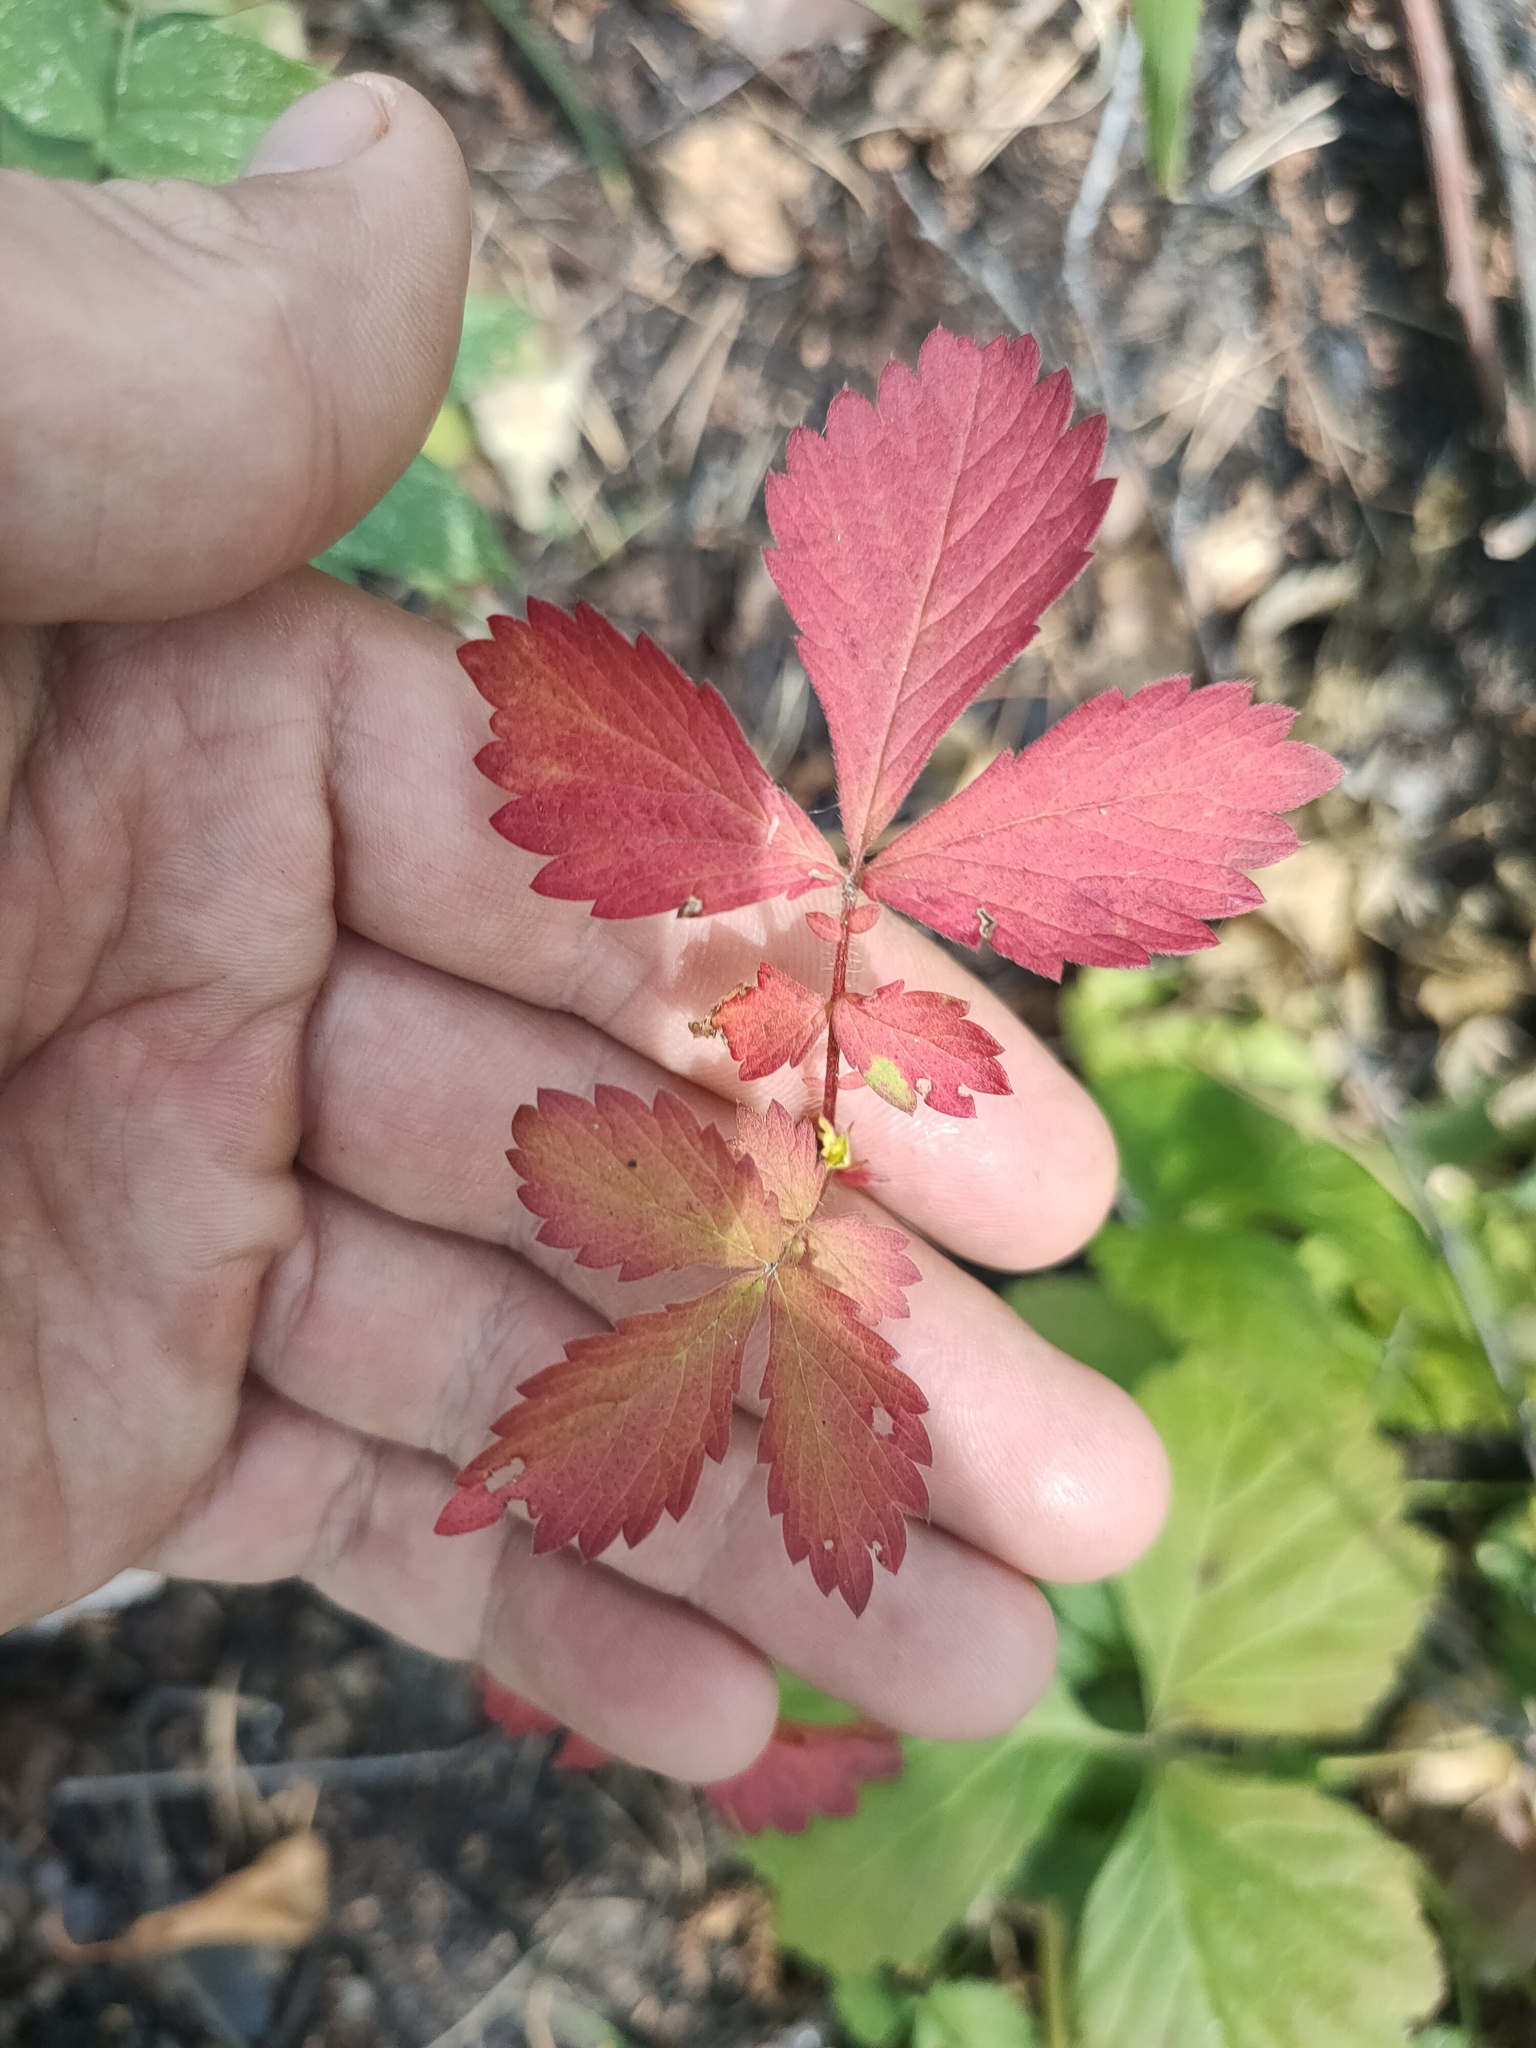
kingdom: Plantae
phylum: Tracheophyta
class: Magnoliopsida
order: Rosales
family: Rosaceae
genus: Agrimonia
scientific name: Agrimonia pilosa
